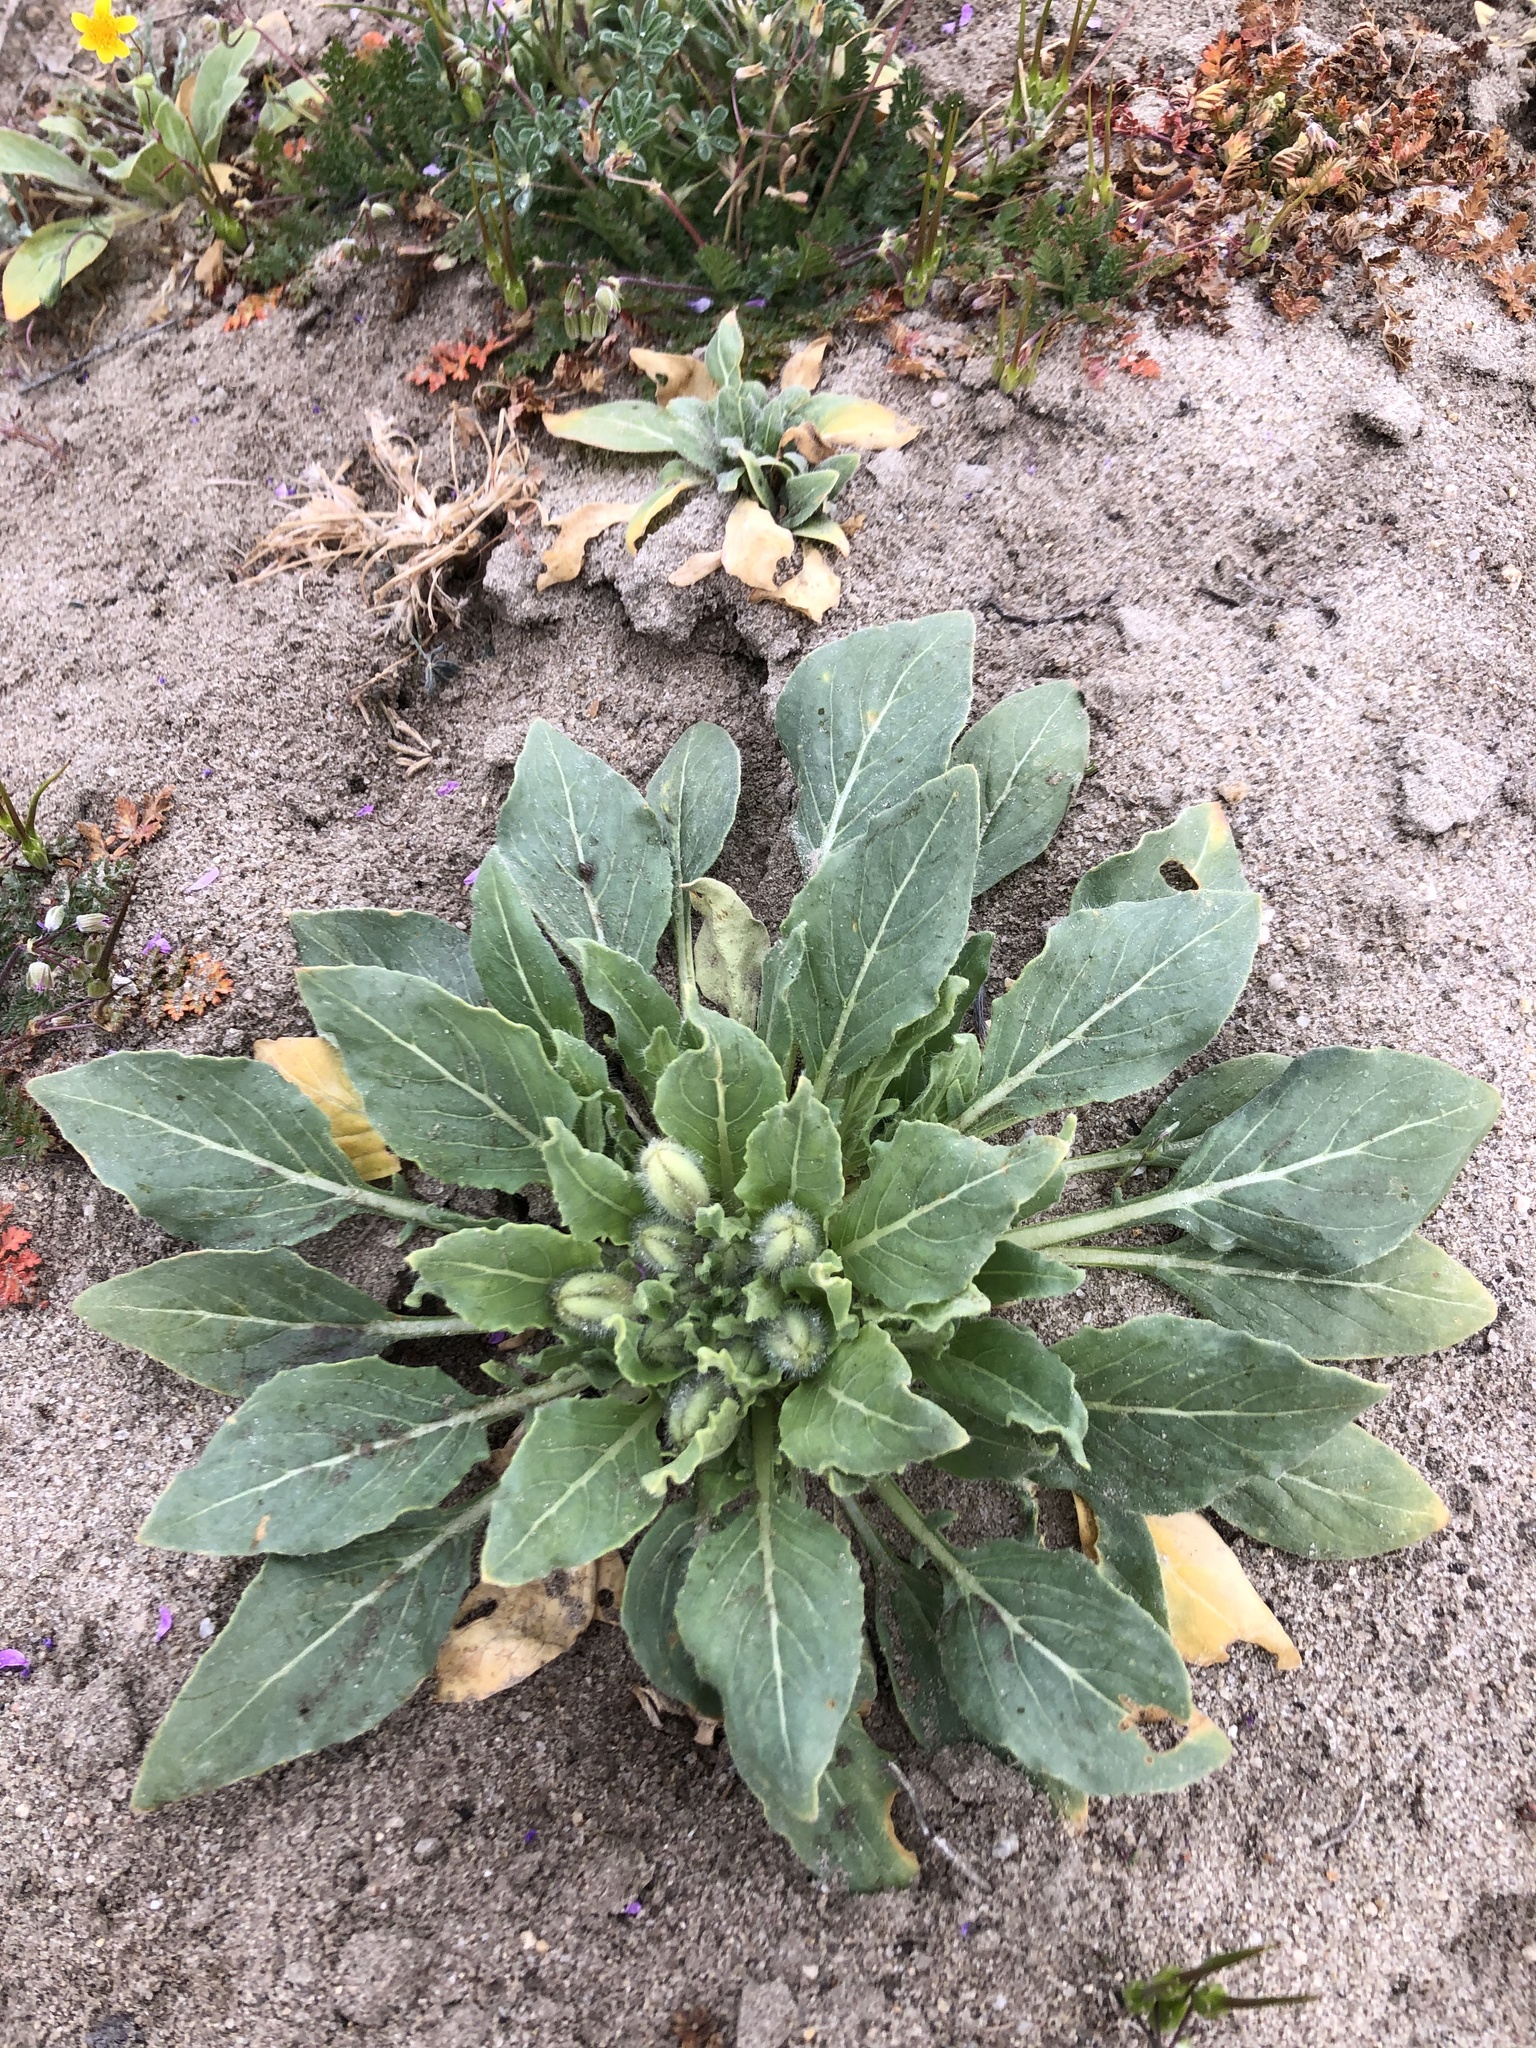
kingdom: Plantae
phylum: Tracheophyta
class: Magnoliopsida
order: Myrtales
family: Onagraceae
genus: Oenothera
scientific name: Oenothera deltoides
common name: Basket evening-primrose
